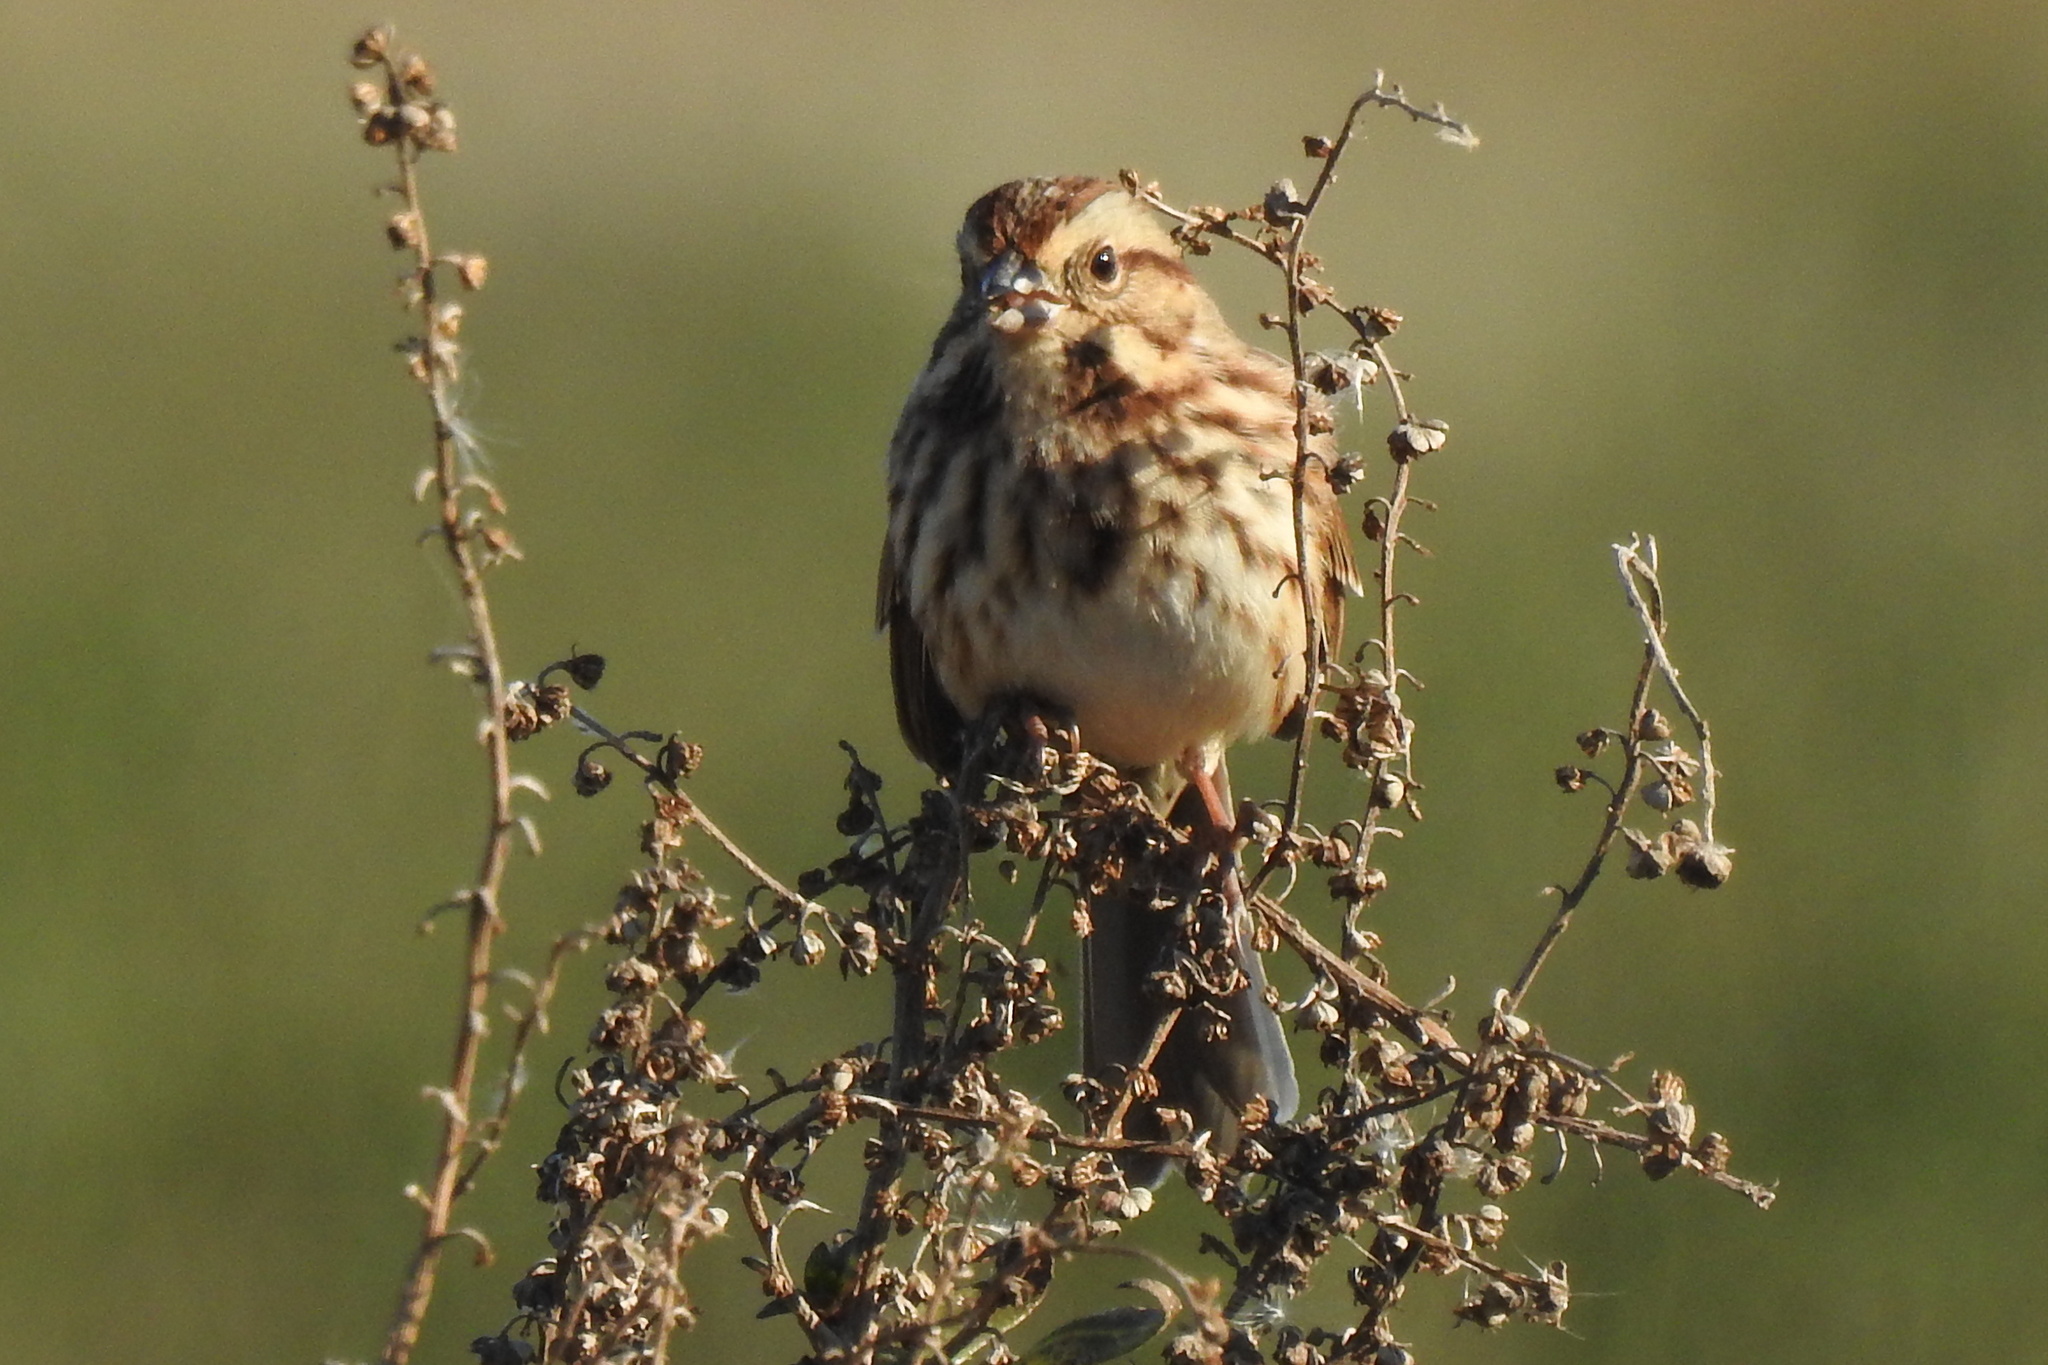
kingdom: Animalia
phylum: Chordata
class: Aves
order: Passeriformes
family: Passerellidae
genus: Melospiza
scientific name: Melospiza melodia
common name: Song sparrow
